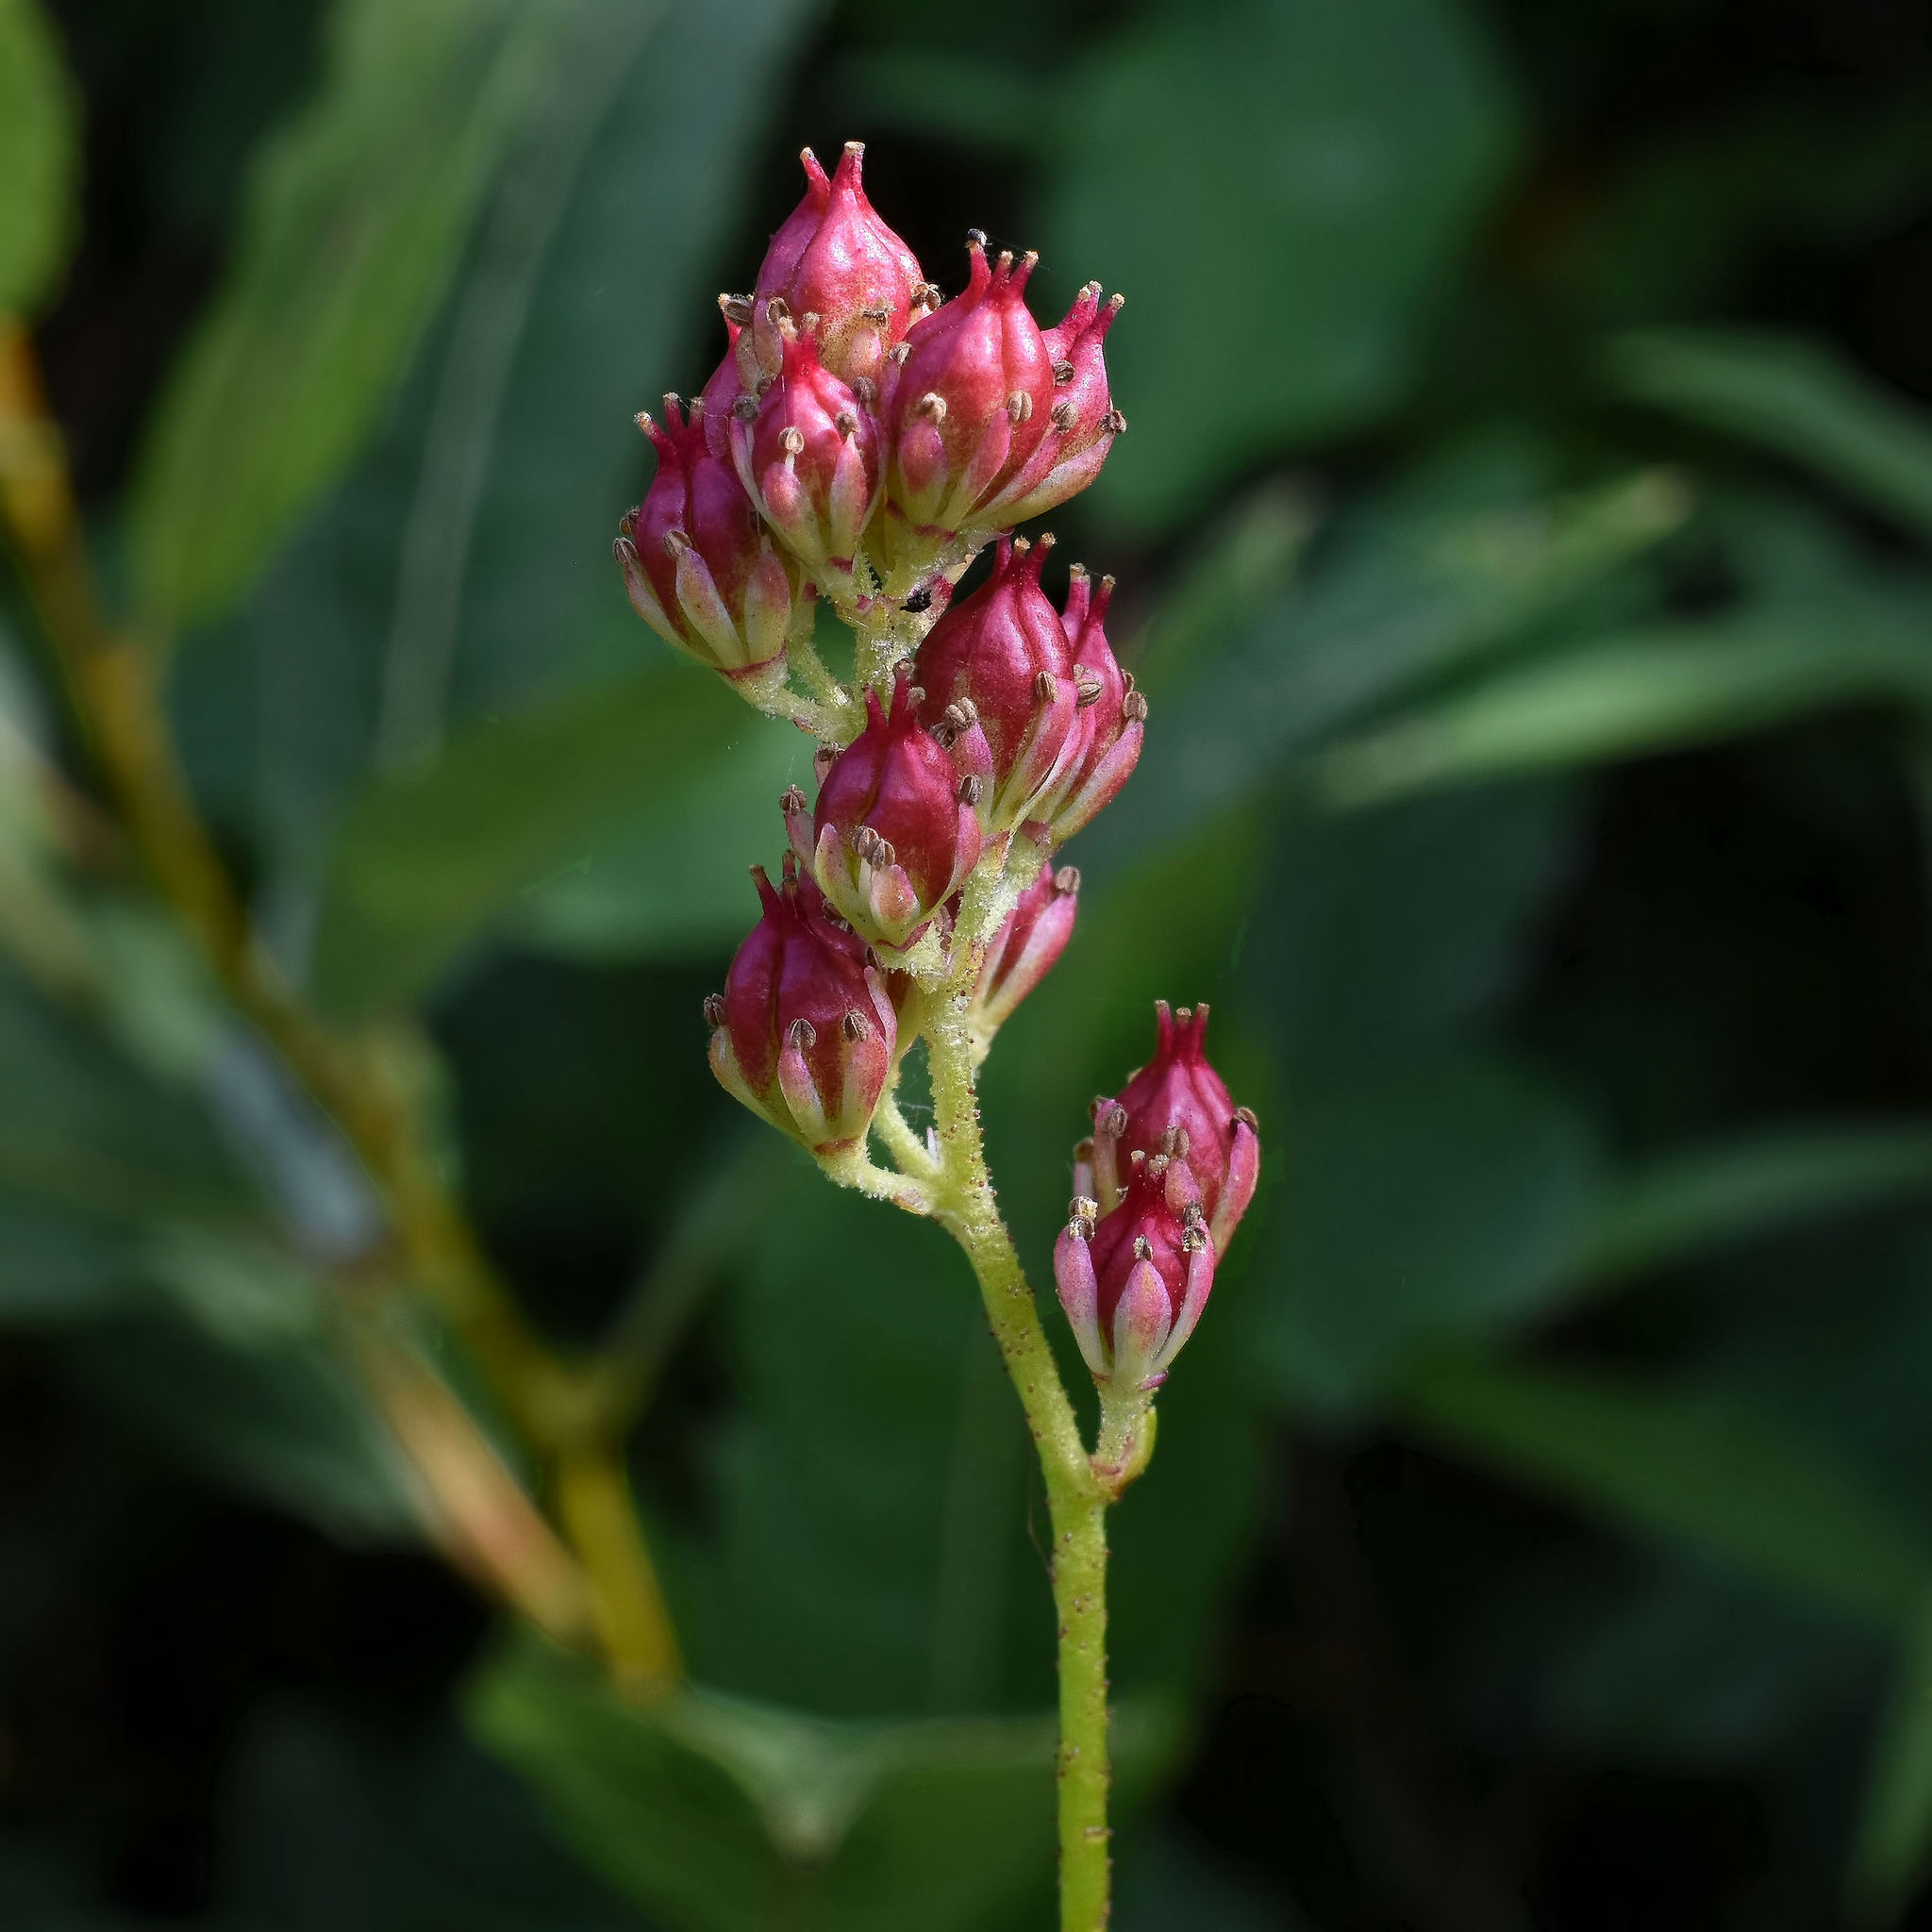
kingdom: Plantae
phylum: Tracheophyta
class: Liliopsida
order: Alismatales
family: Tofieldiaceae
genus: Triantha
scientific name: Triantha glutinosa
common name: Glutinous tofieldia
